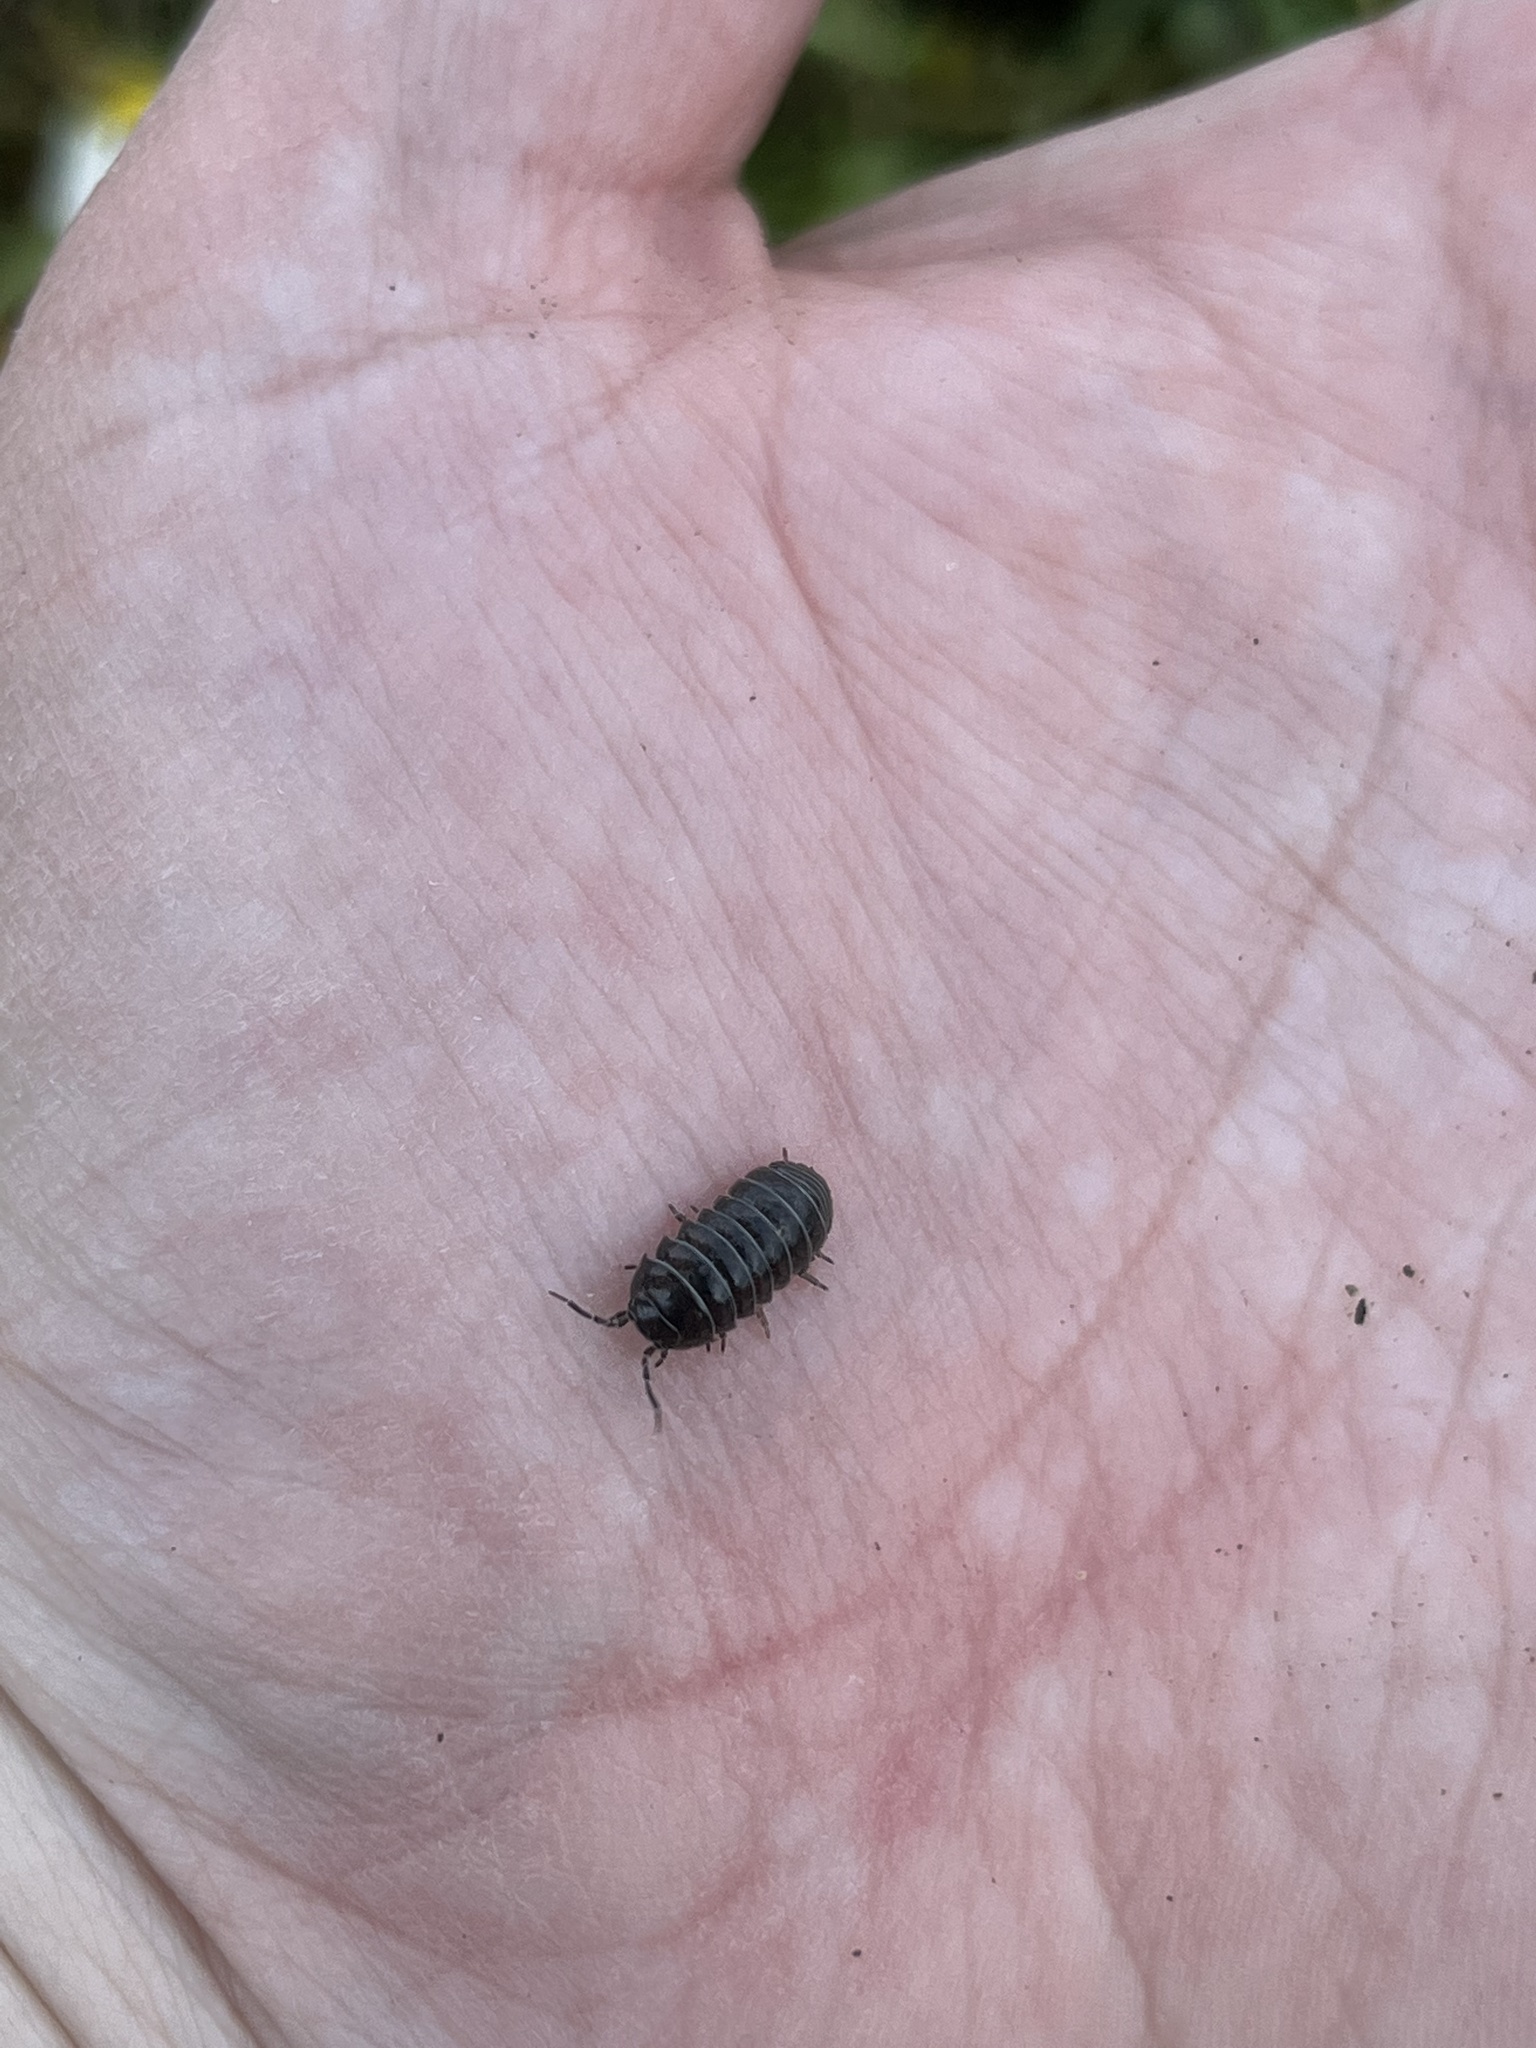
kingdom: Animalia
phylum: Arthropoda
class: Malacostraca
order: Isopoda
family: Armadillidiidae
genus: Armadillidium
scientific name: Armadillidium vulgare
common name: Common pill woodlouse
